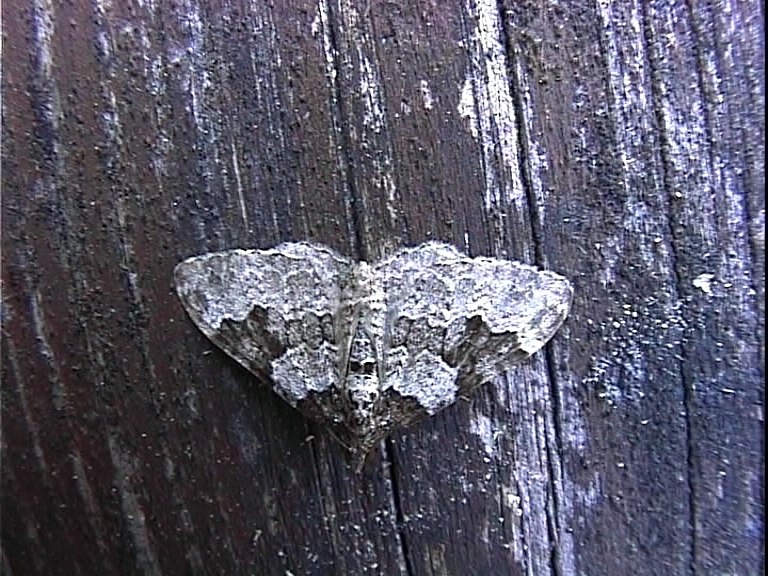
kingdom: Animalia
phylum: Arthropoda
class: Insecta
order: Lepidoptera
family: Geometridae
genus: Xanthorhoe
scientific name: Xanthorhoe fluctuata
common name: Garden carpet
